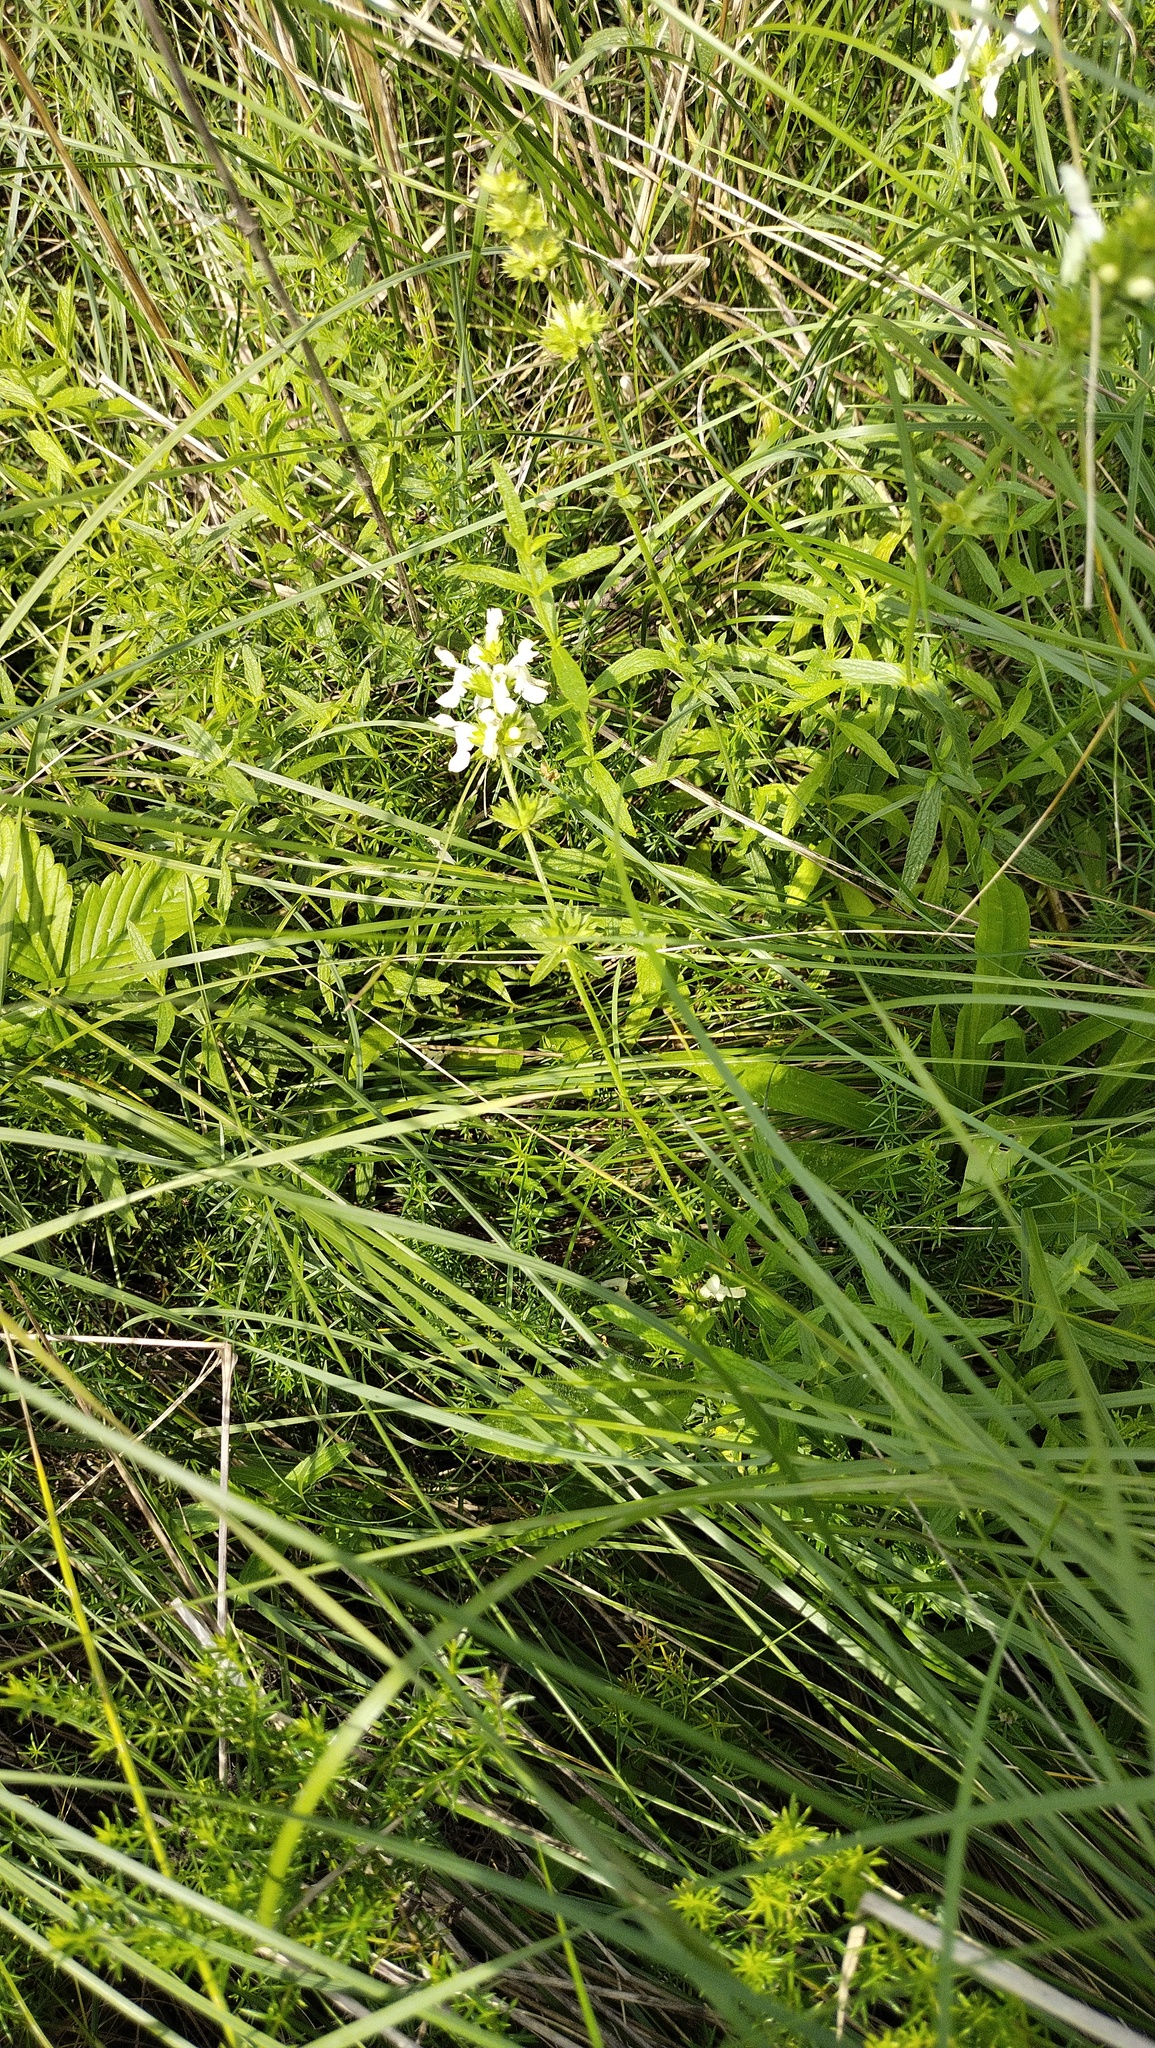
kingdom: Plantae
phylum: Tracheophyta
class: Magnoliopsida
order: Lamiales
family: Lamiaceae
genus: Stachys
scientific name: Stachys recta
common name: Perennial yellow-woundwort
